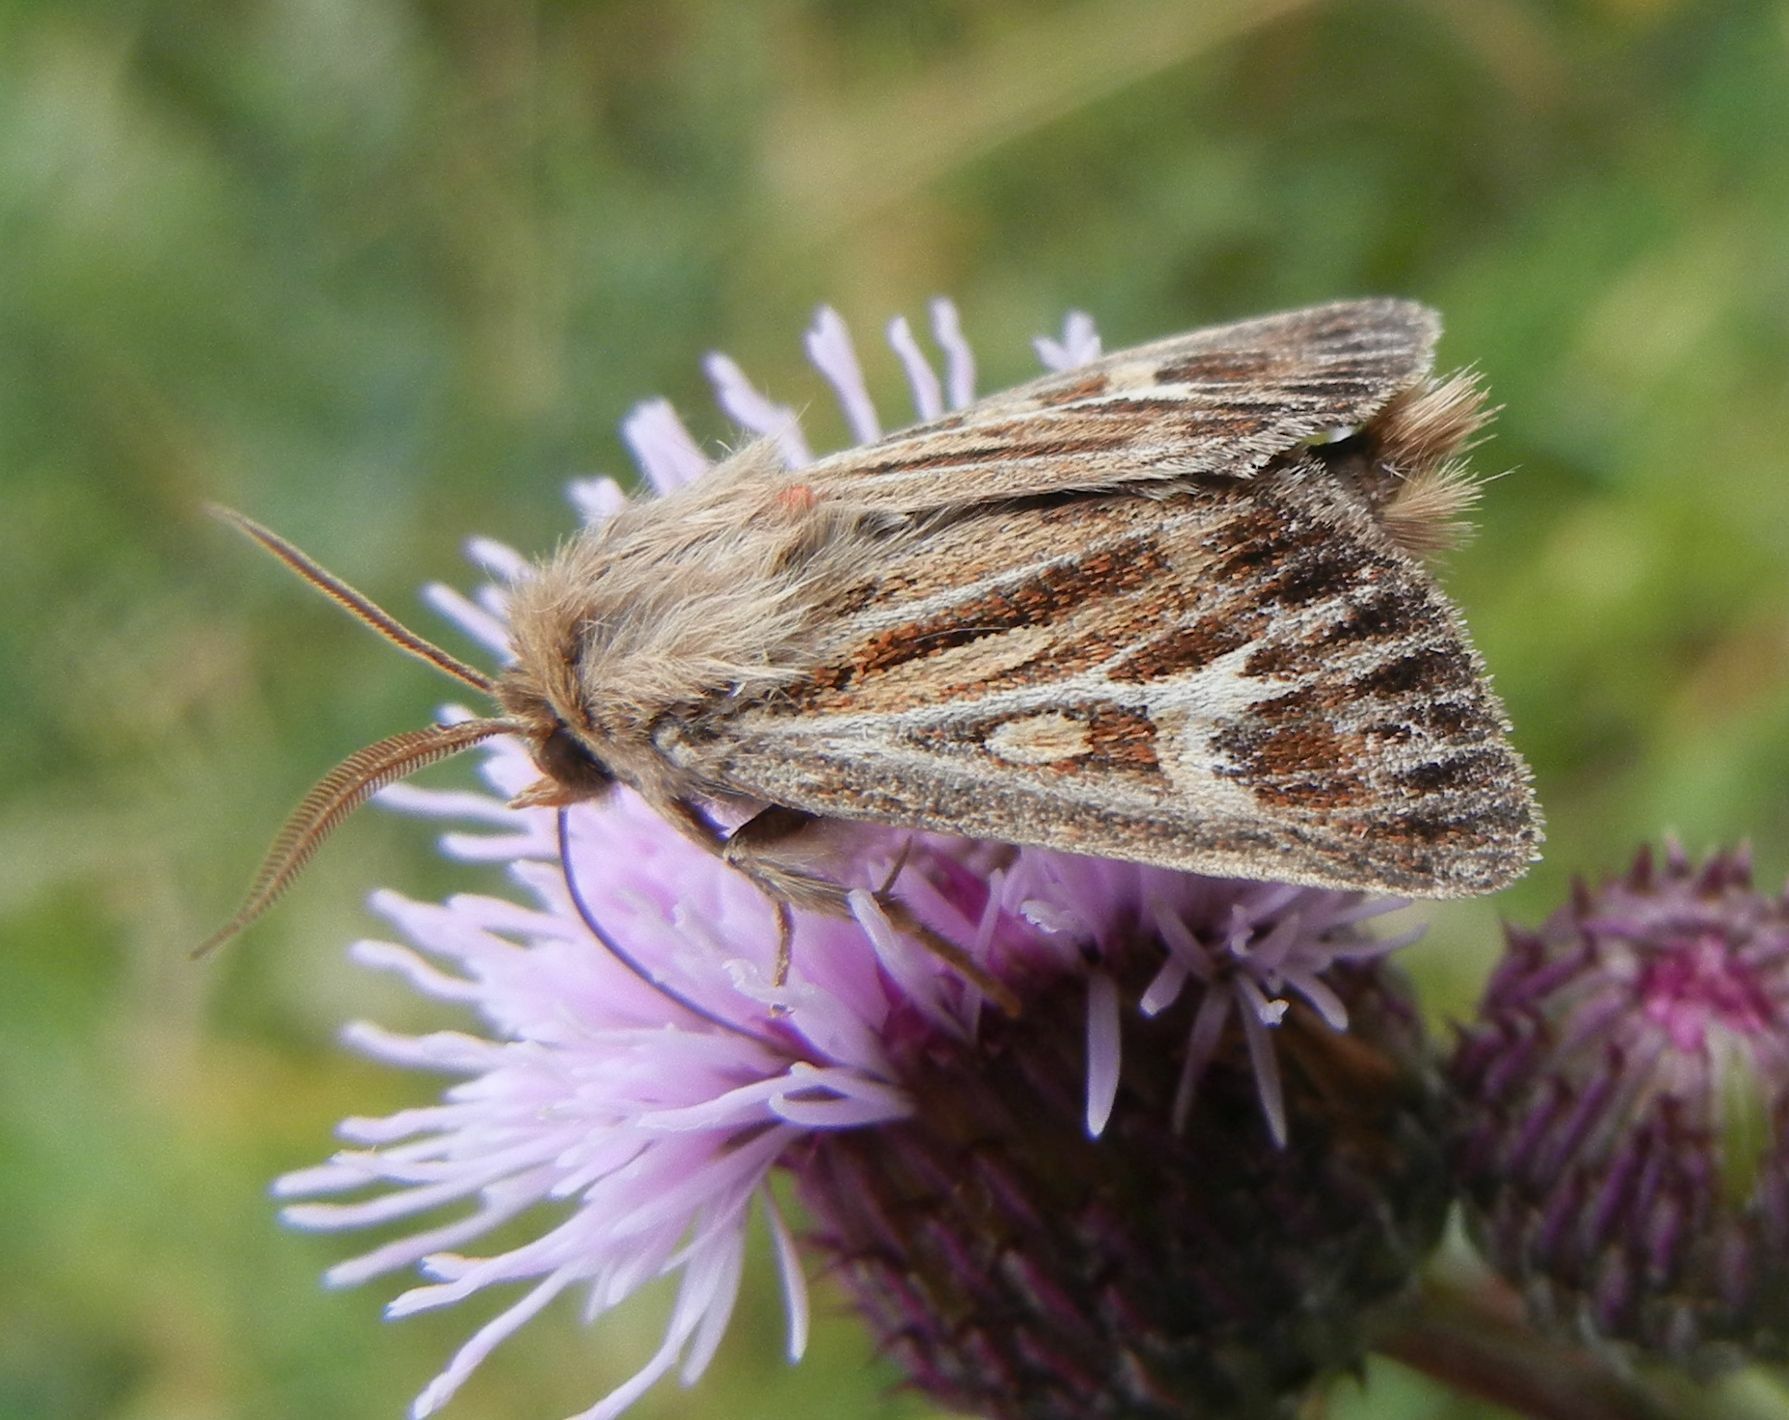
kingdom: Animalia
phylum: Arthropoda
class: Insecta
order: Lepidoptera
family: Noctuidae
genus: Cerapteryx
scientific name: Cerapteryx graminis
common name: Antler moth
